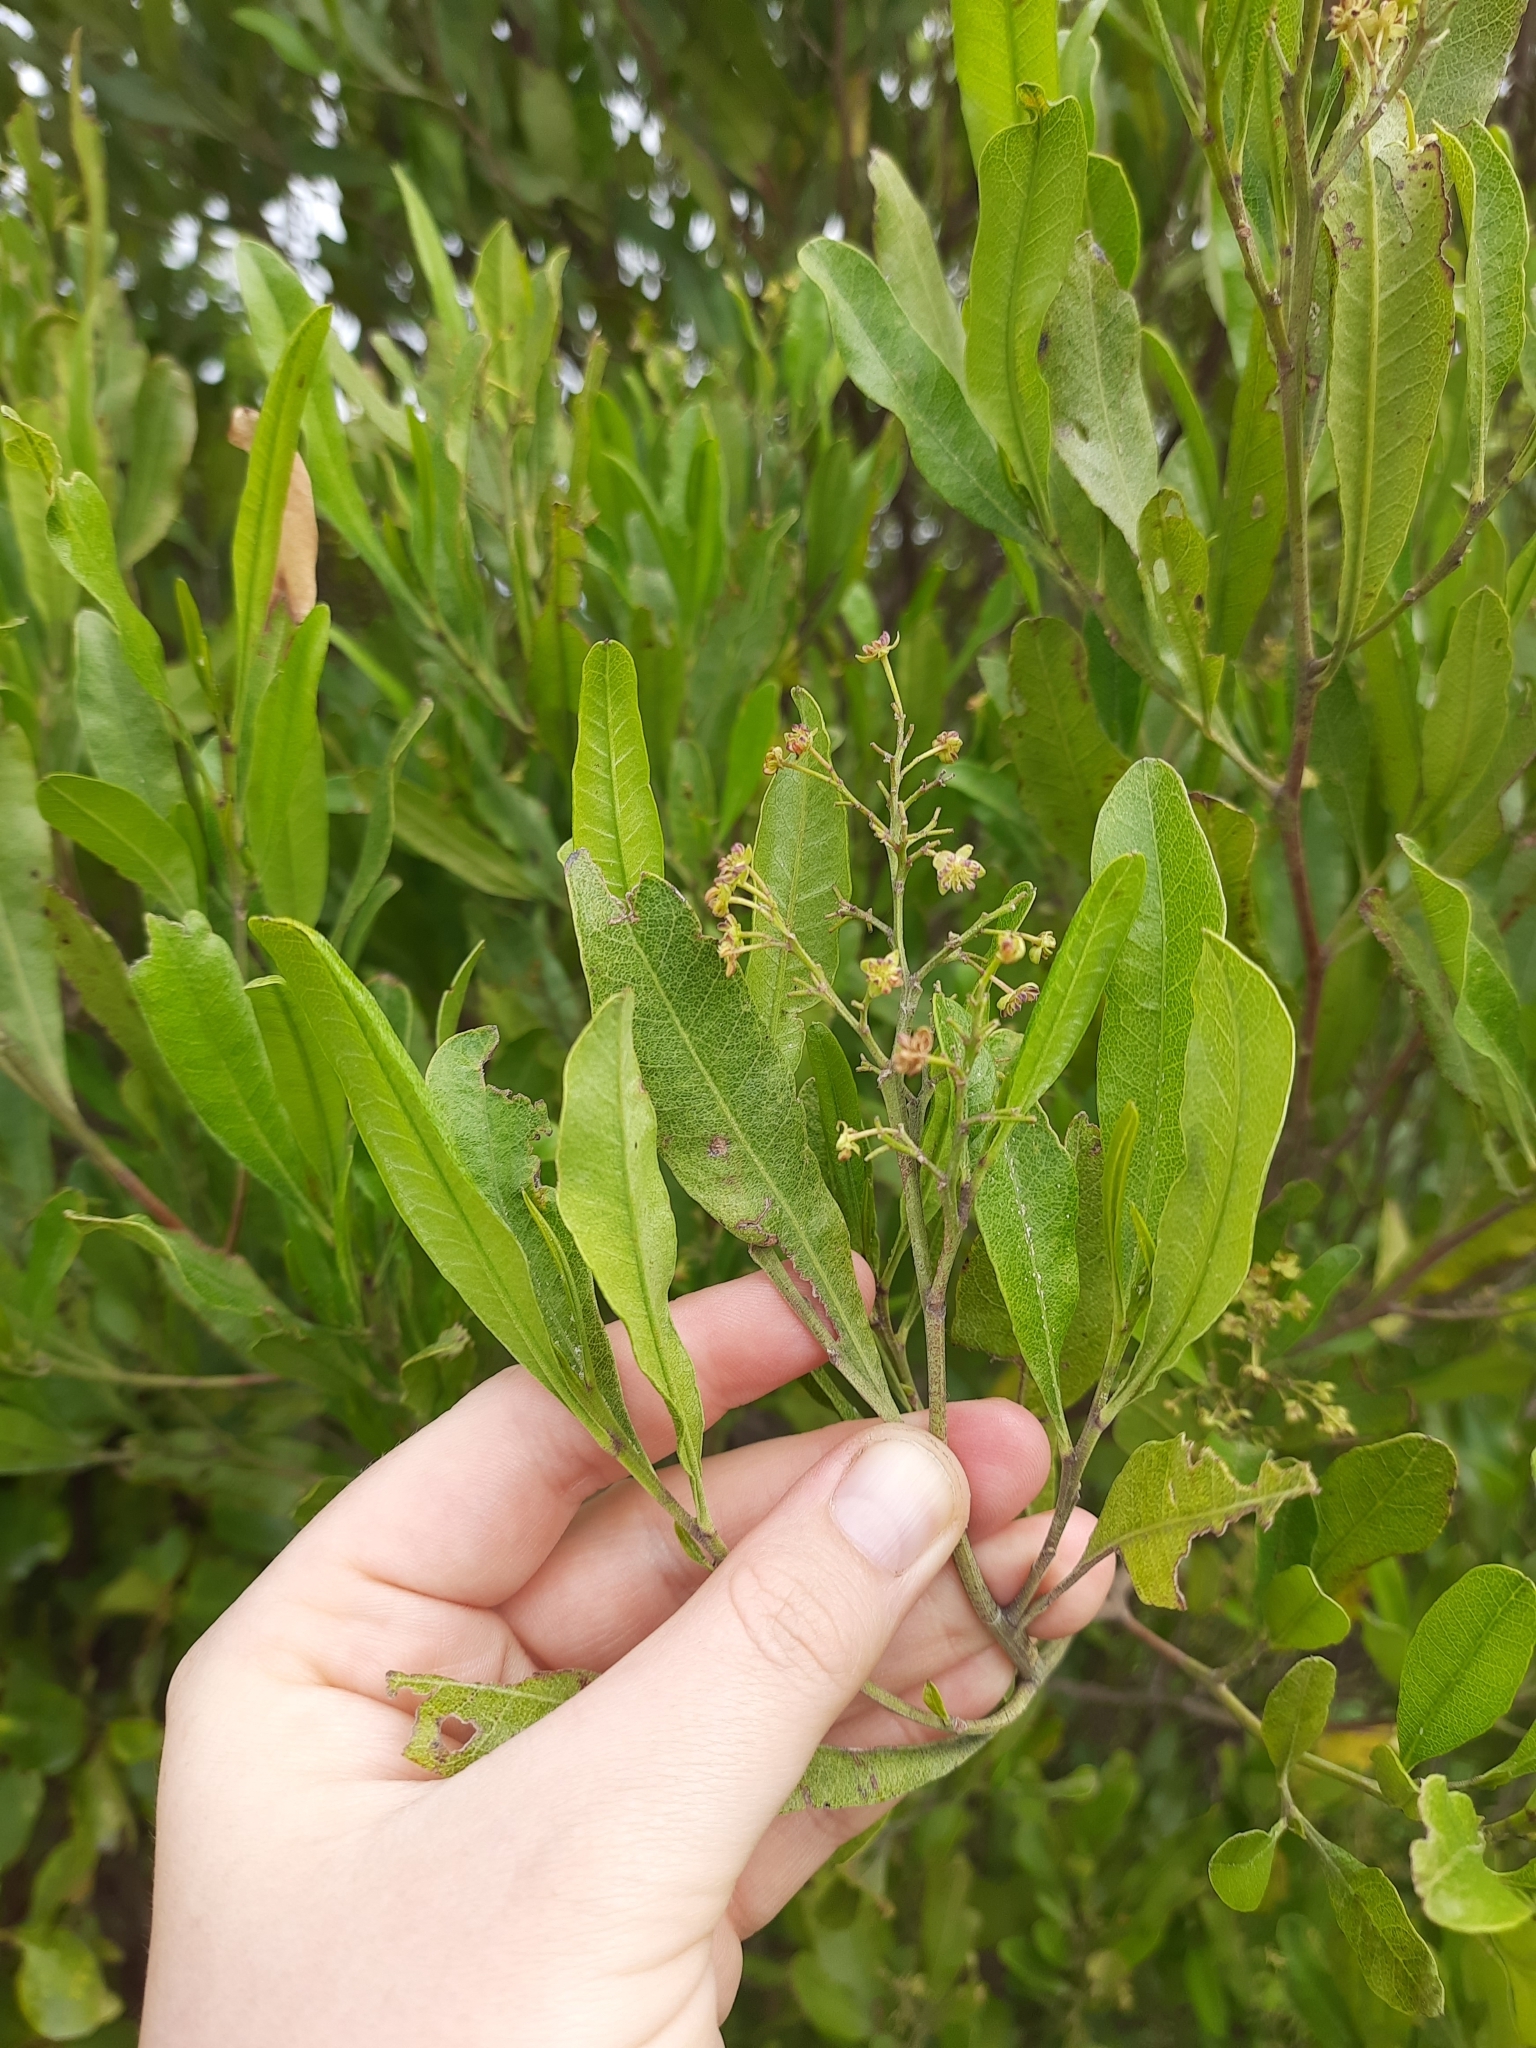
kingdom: Plantae
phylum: Tracheophyta
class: Magnoliopsida
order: Sapindales
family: Sapindaceae
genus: Dodonaea
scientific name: Dodonaea viscosa
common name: Hopbush
